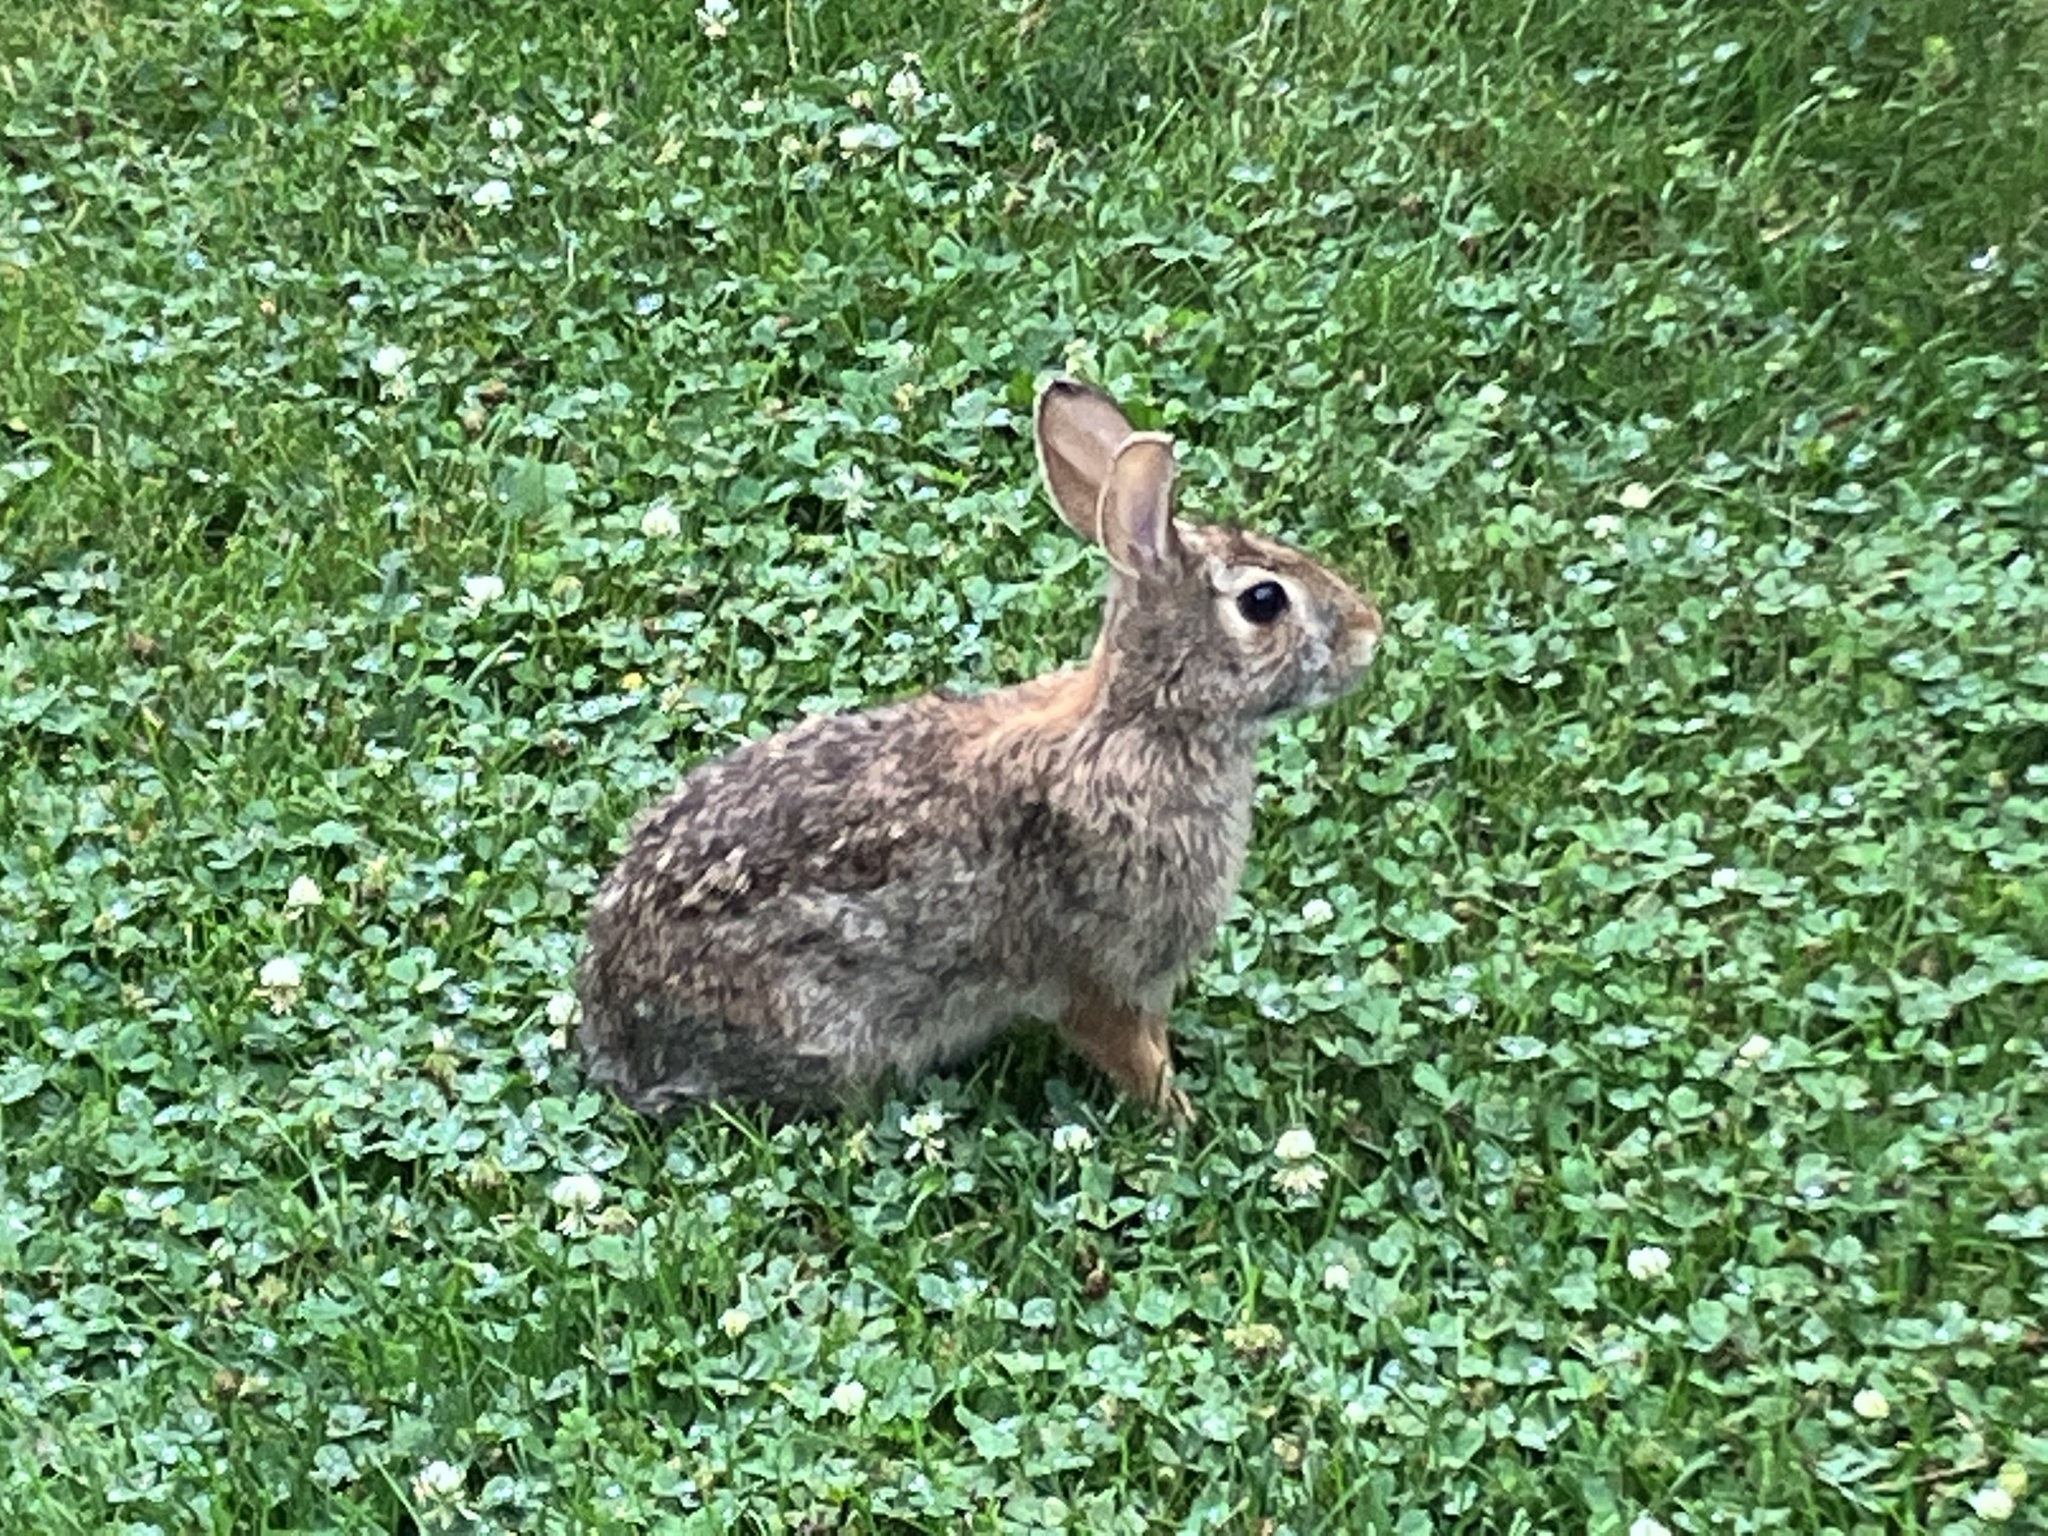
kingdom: Animalia
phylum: Chordata
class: Mammalia
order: Lagomorpha
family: Leporidae
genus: Sylvilagus
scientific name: Sylvilagus floridanus
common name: Eastern cottontail
